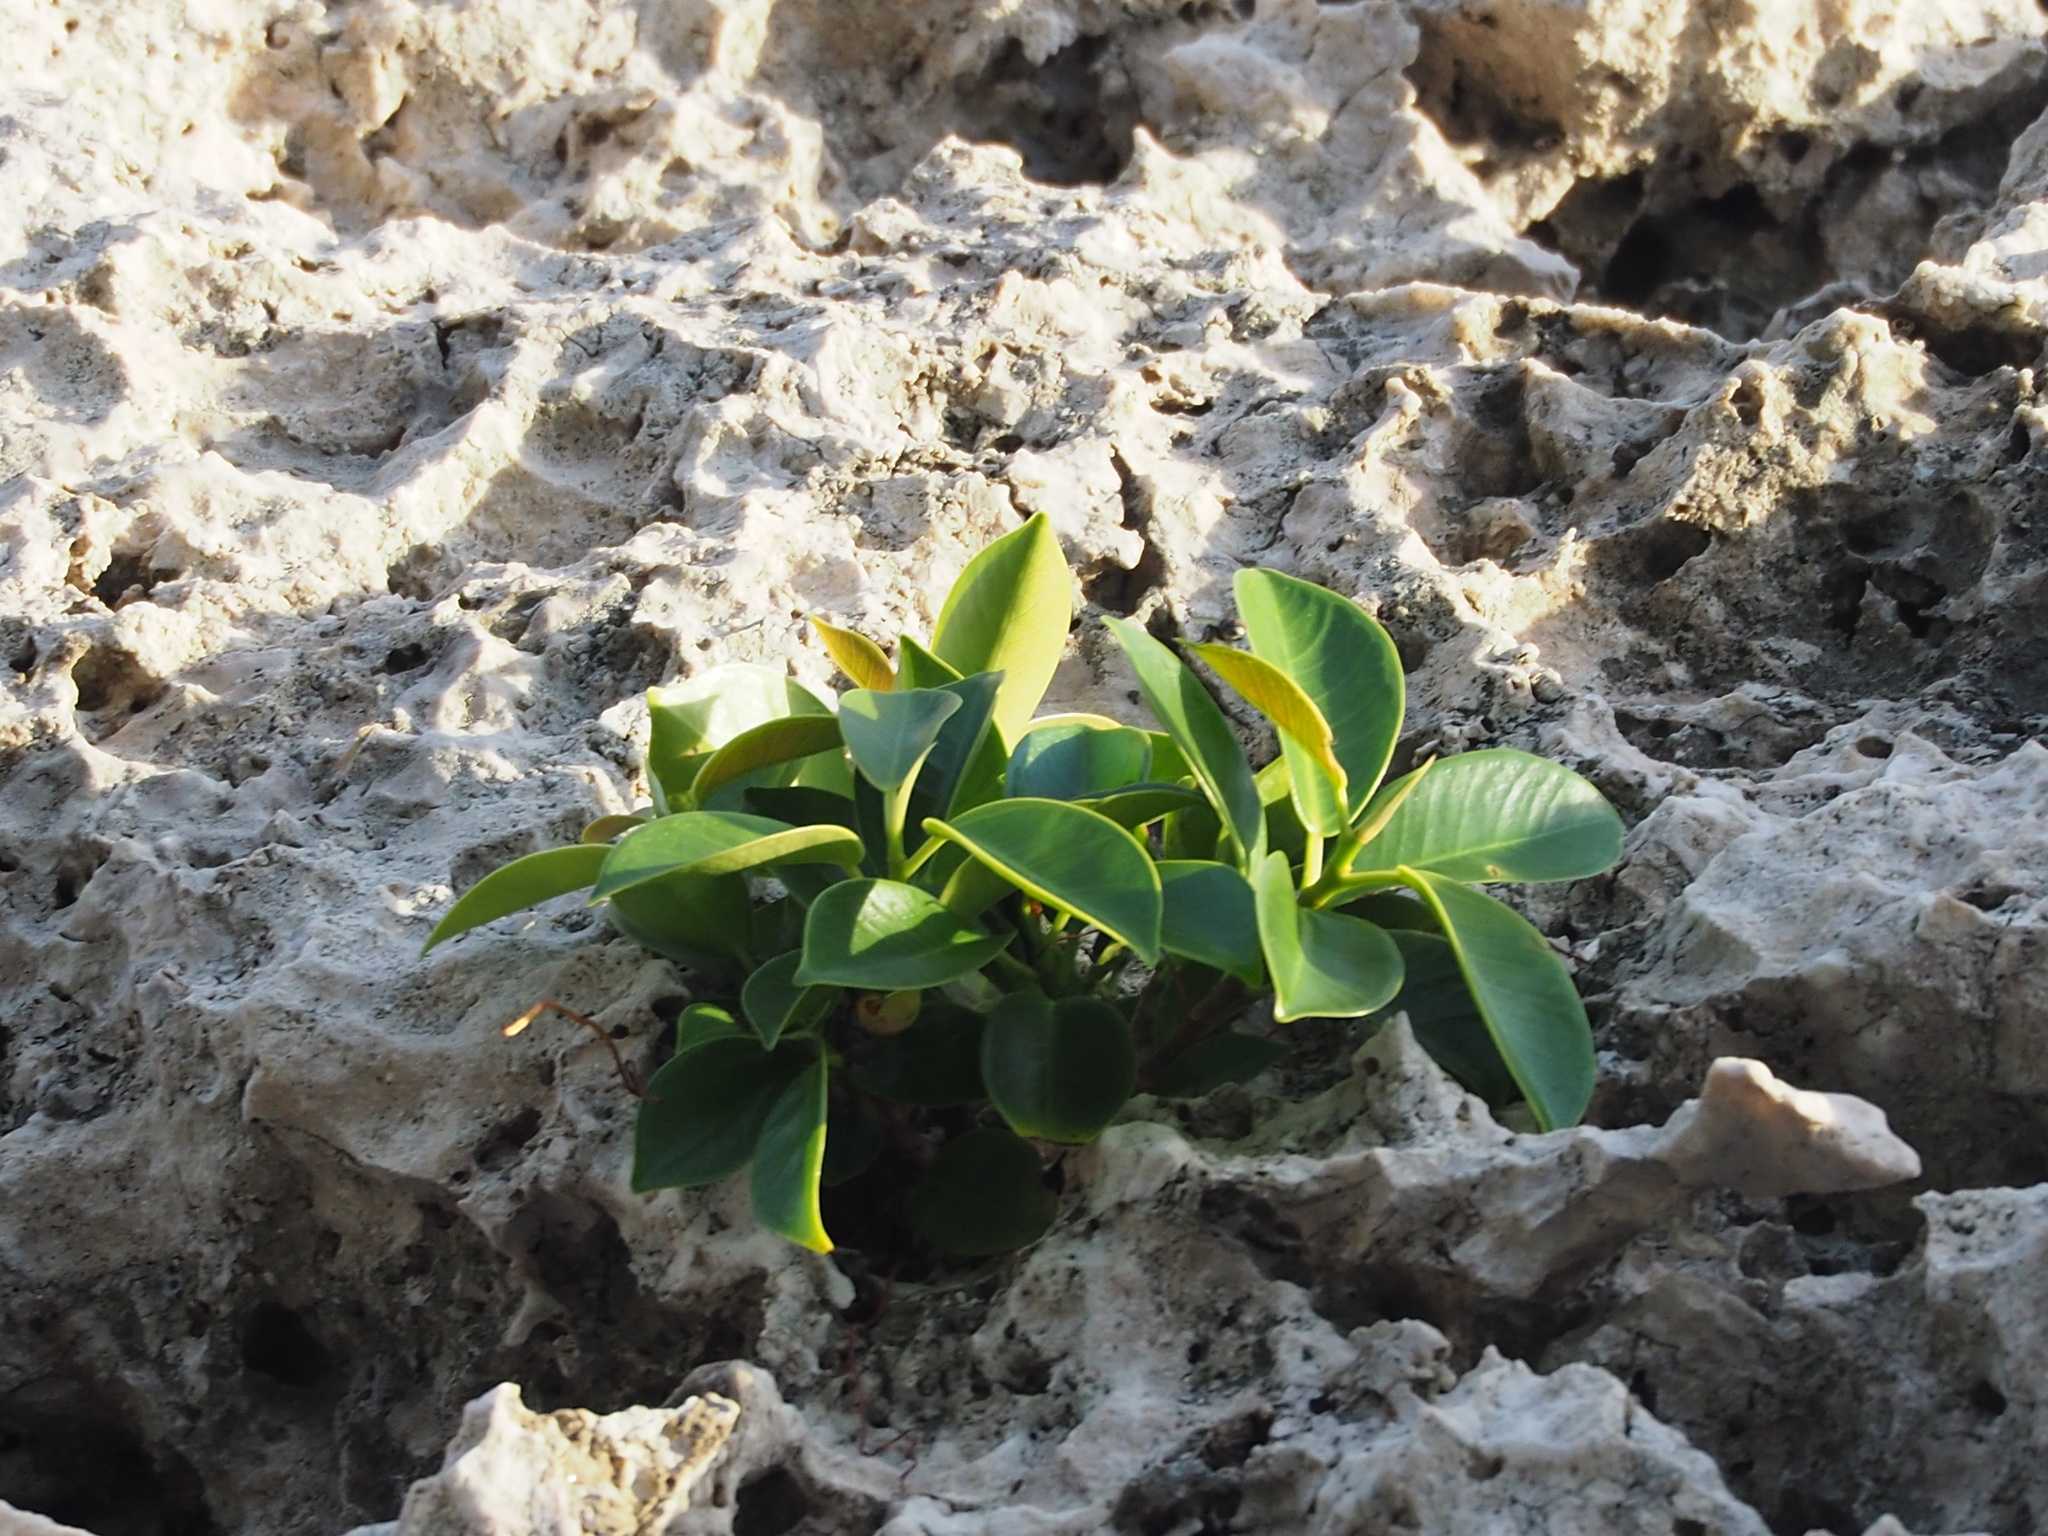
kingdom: Plantae
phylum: Tracheophyta
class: Magnoliopsida
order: Rosales
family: Moraceae
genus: Ficus
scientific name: Ficus microcarpa
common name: Chinese banyan
